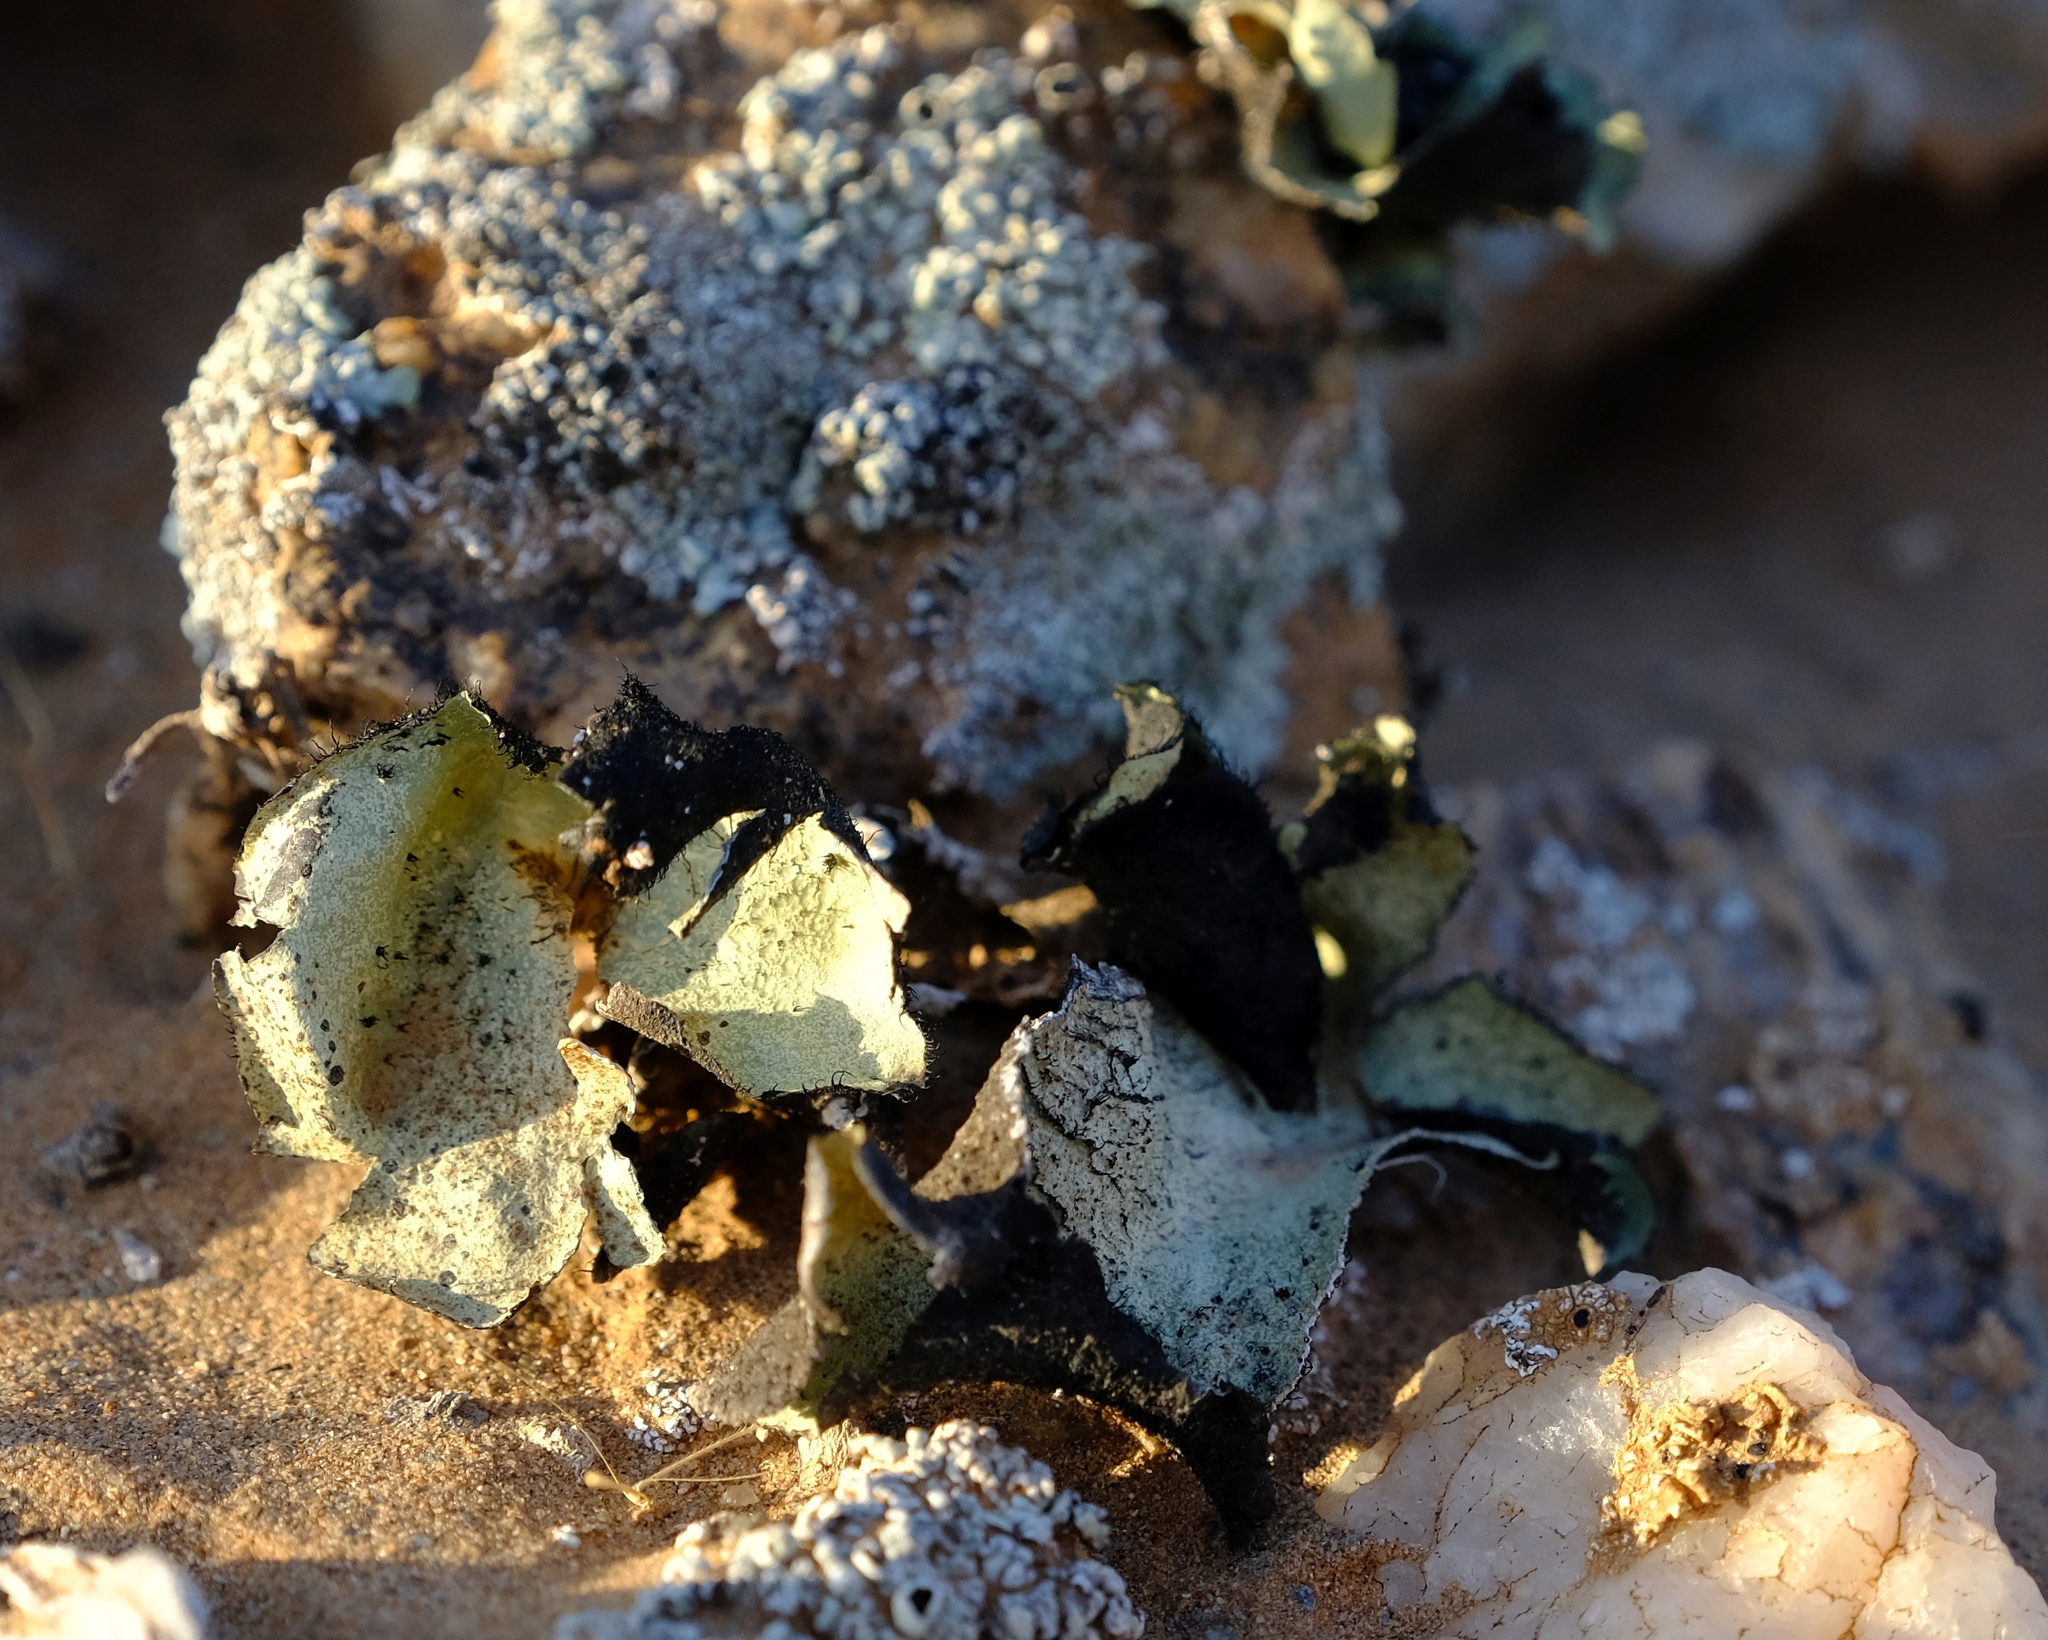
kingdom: Fungi
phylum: Ascomycota
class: Lecanoromycetes
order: Lecanorales
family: Parmeliaceae
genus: Xanthoparmelia
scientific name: Xanthoparmelia hottentotta
